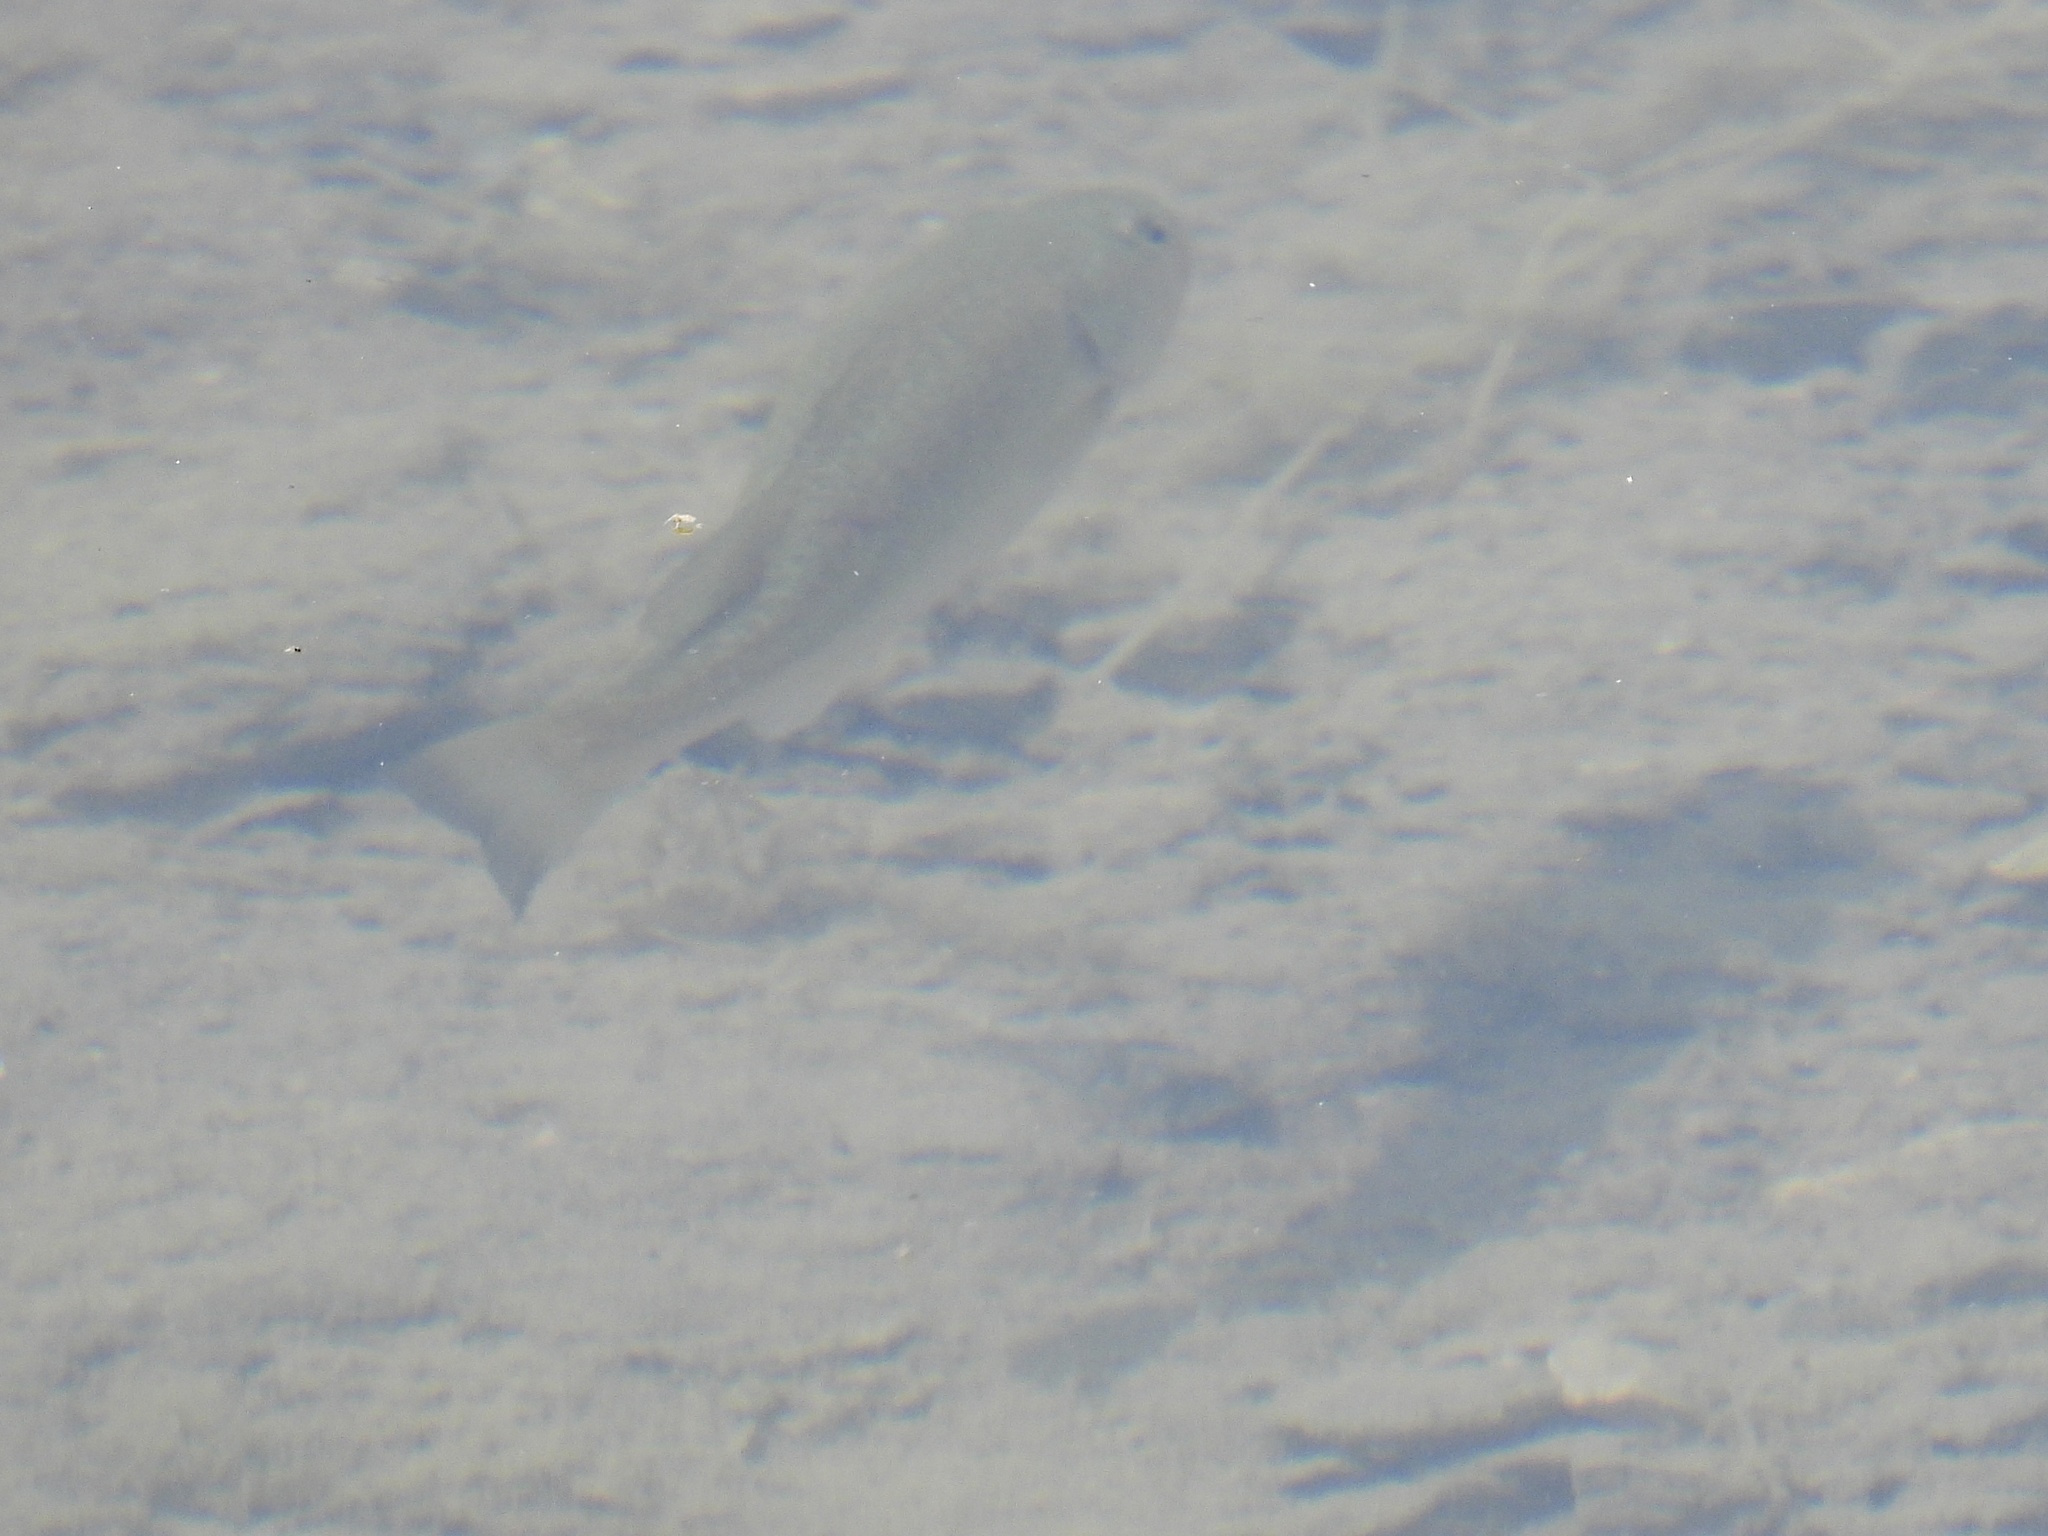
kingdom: Animalia
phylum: Chordata
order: Perciformes
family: Centrarchidae
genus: Micropterus
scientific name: Micropterus
